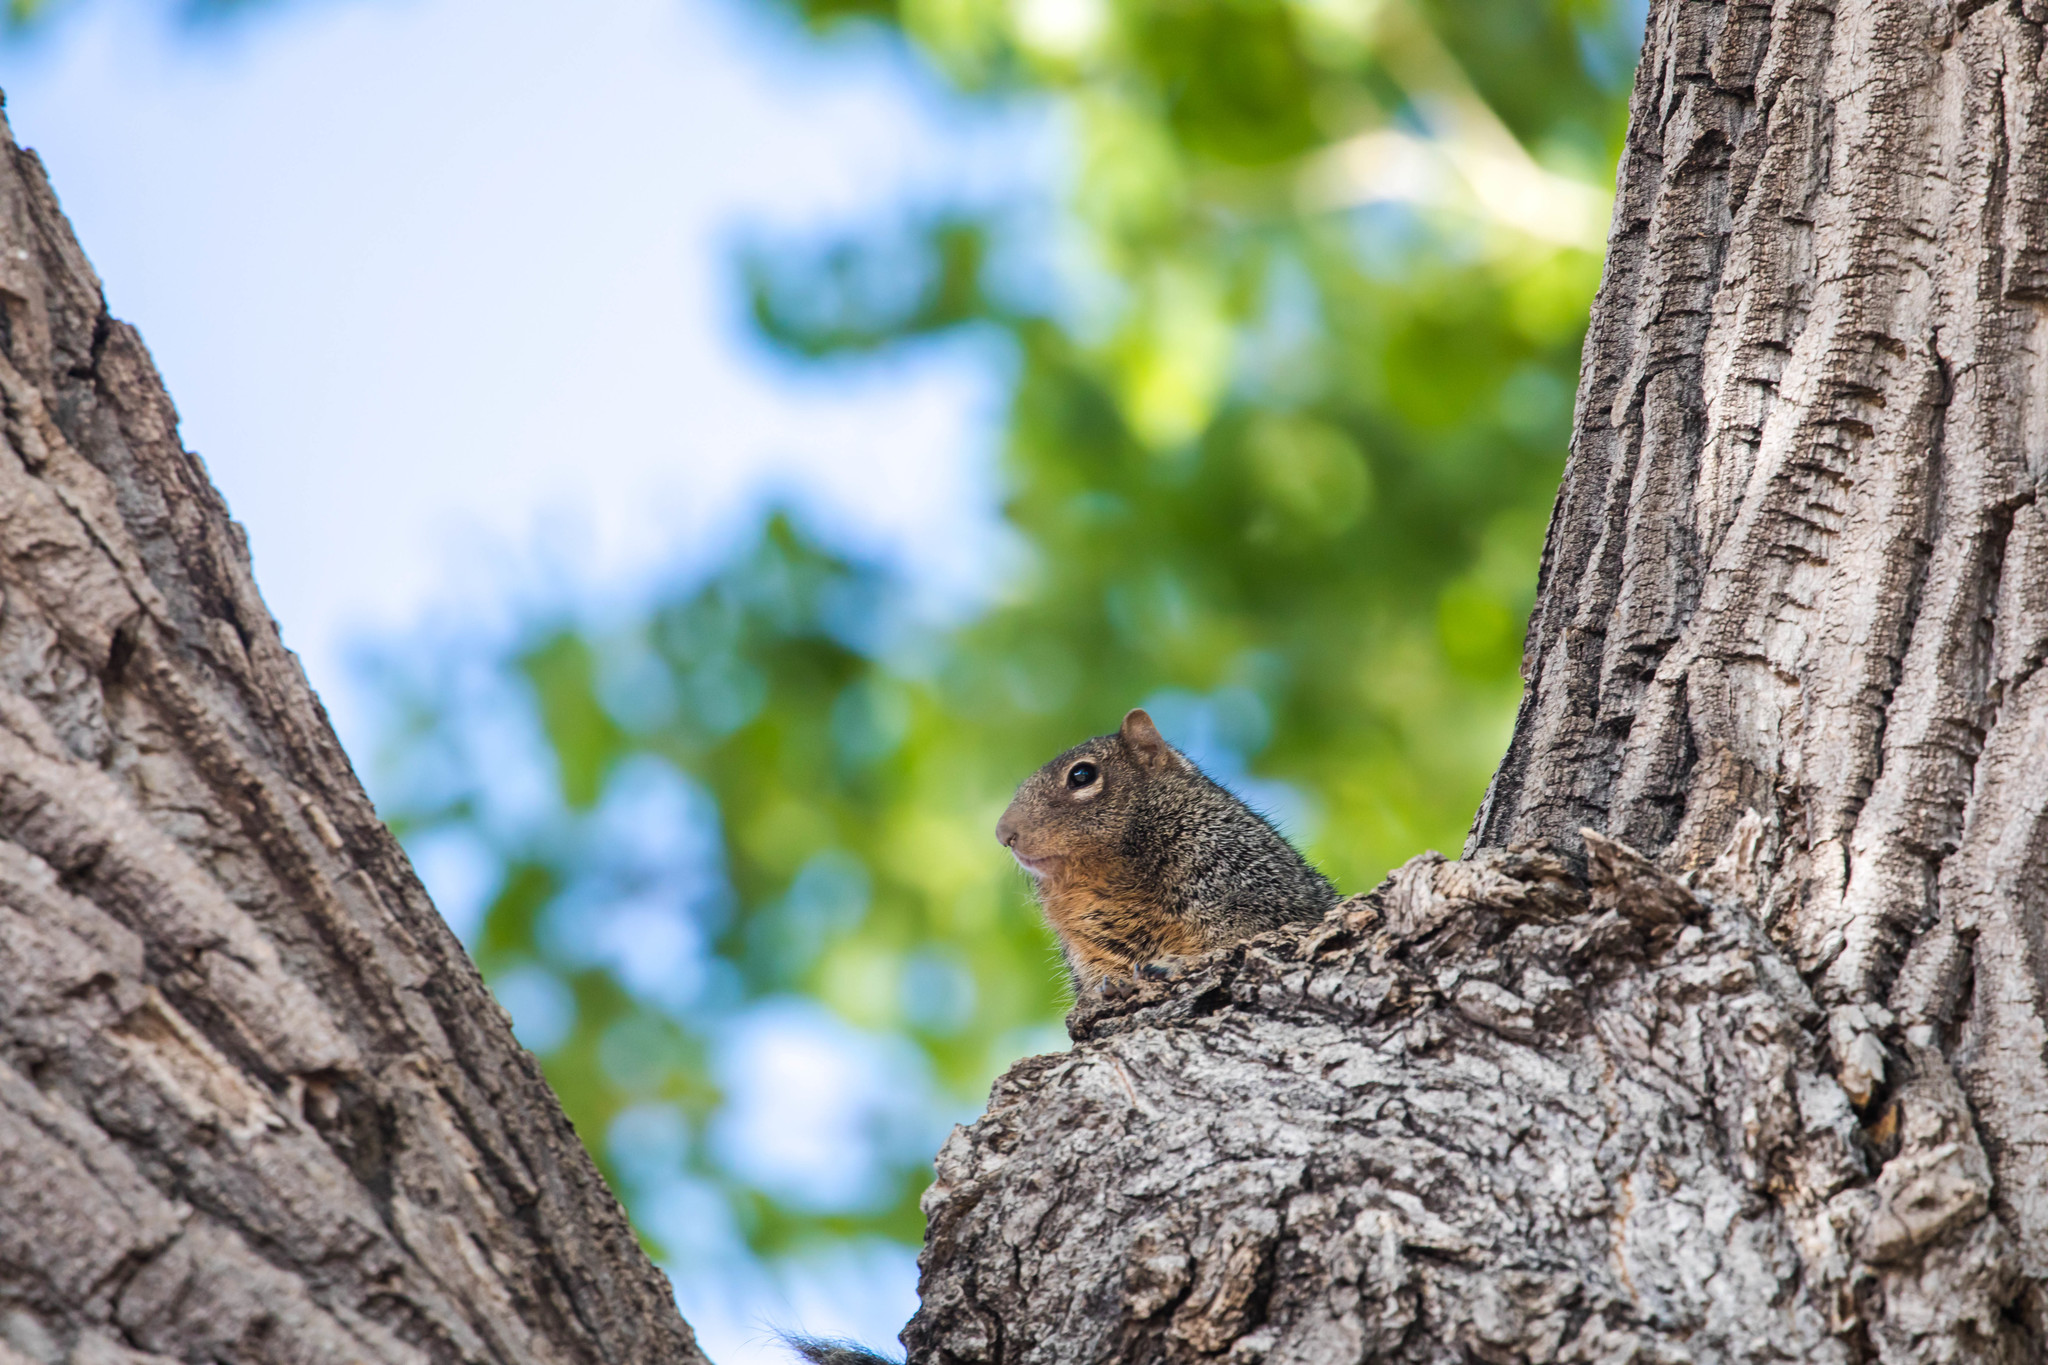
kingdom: Animalia
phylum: Chordata
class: Mammalia
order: Rodentia
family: Sciuridae
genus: Otospermophilus
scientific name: Otospermophilus variegatus
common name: Rock squirrel
